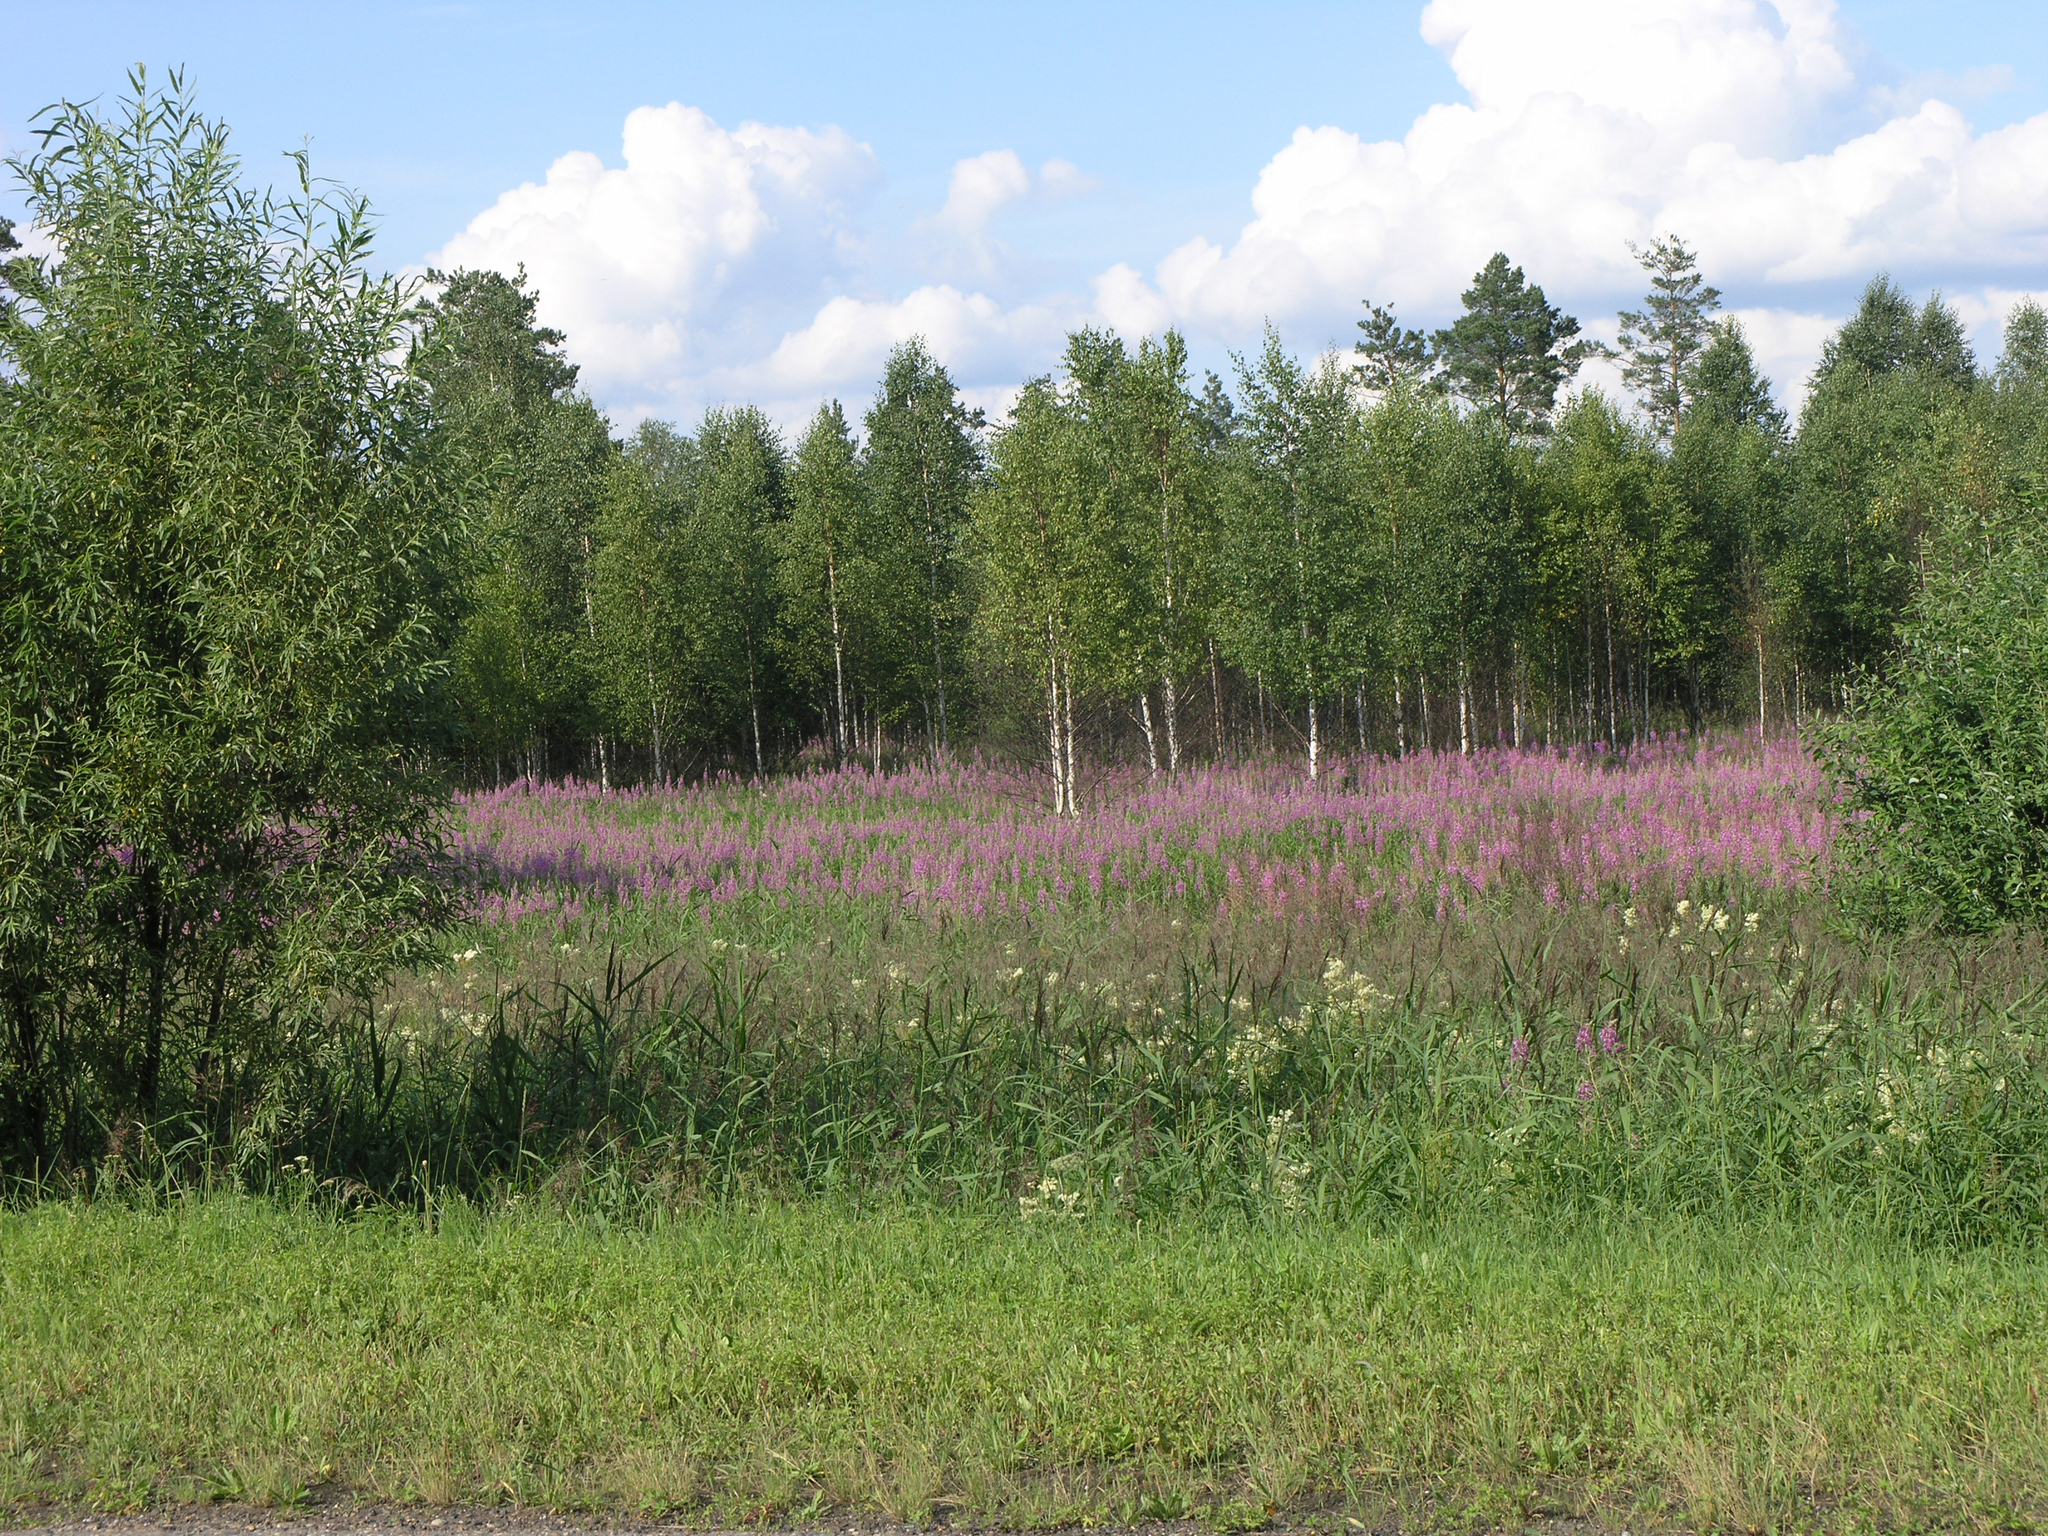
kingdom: Plantae
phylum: Tracheophyta
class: Magnoliopsida
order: Myrtales
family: Onagraceae
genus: Chamaenerion
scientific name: Chamaenerion angustifolium
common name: Fireweed
